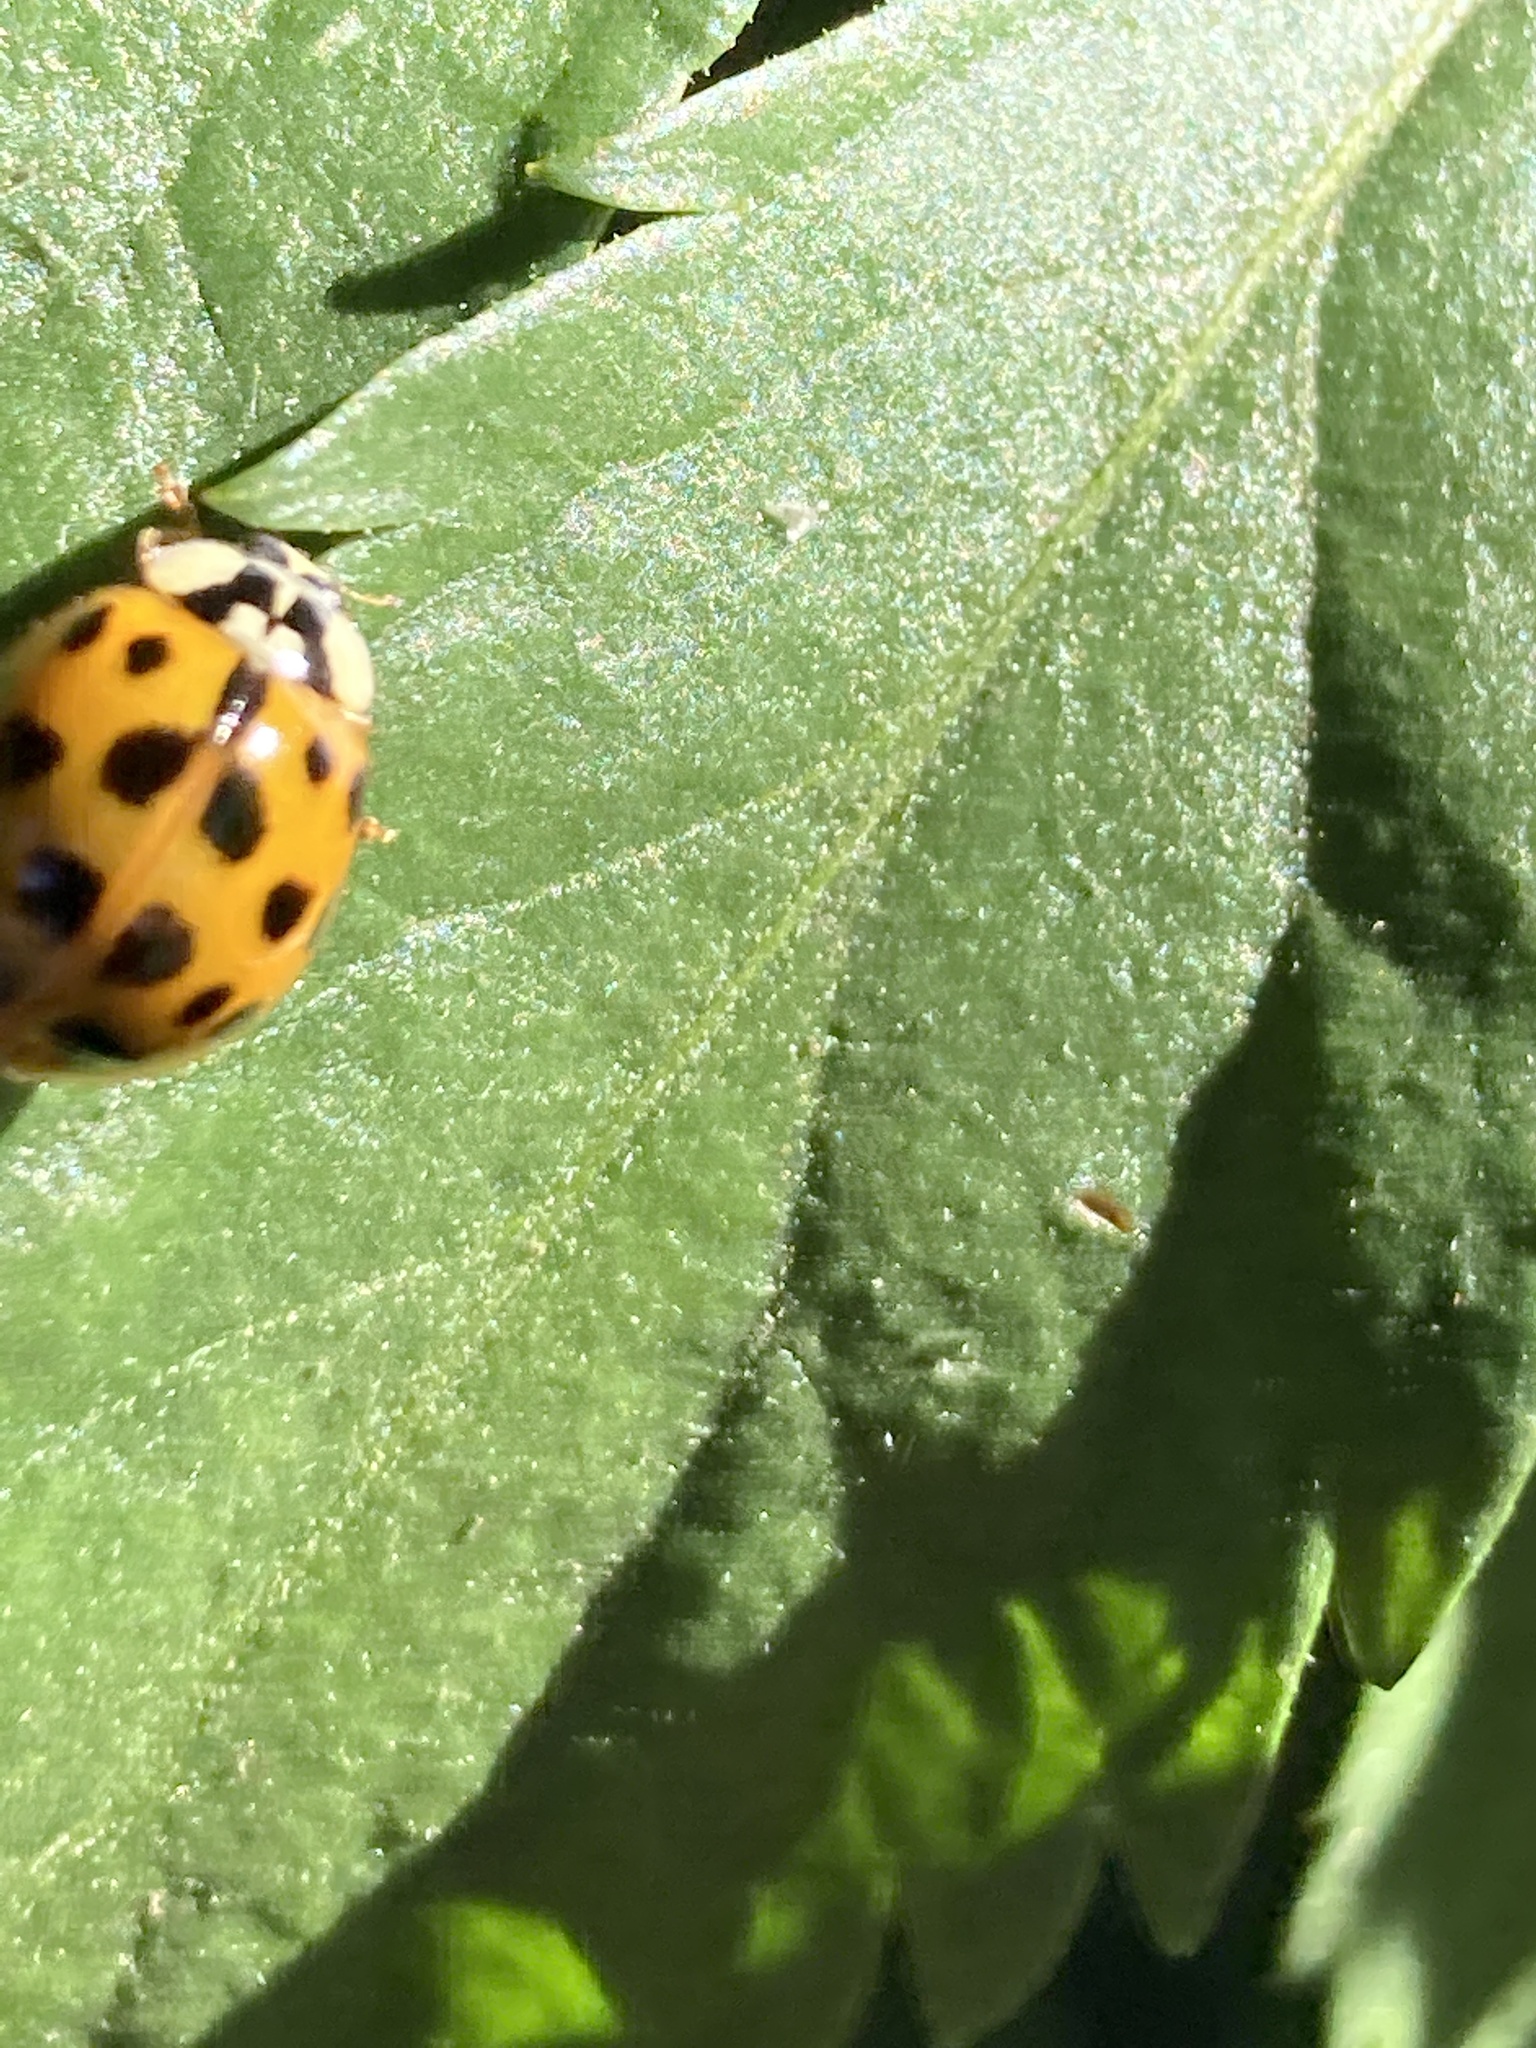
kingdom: Animalia
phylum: Arthropoda
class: Insecta
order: Coleoptera
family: Coccinellidae
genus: Harmonia
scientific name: Harmonia axyridis
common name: Harlequin ladybird
